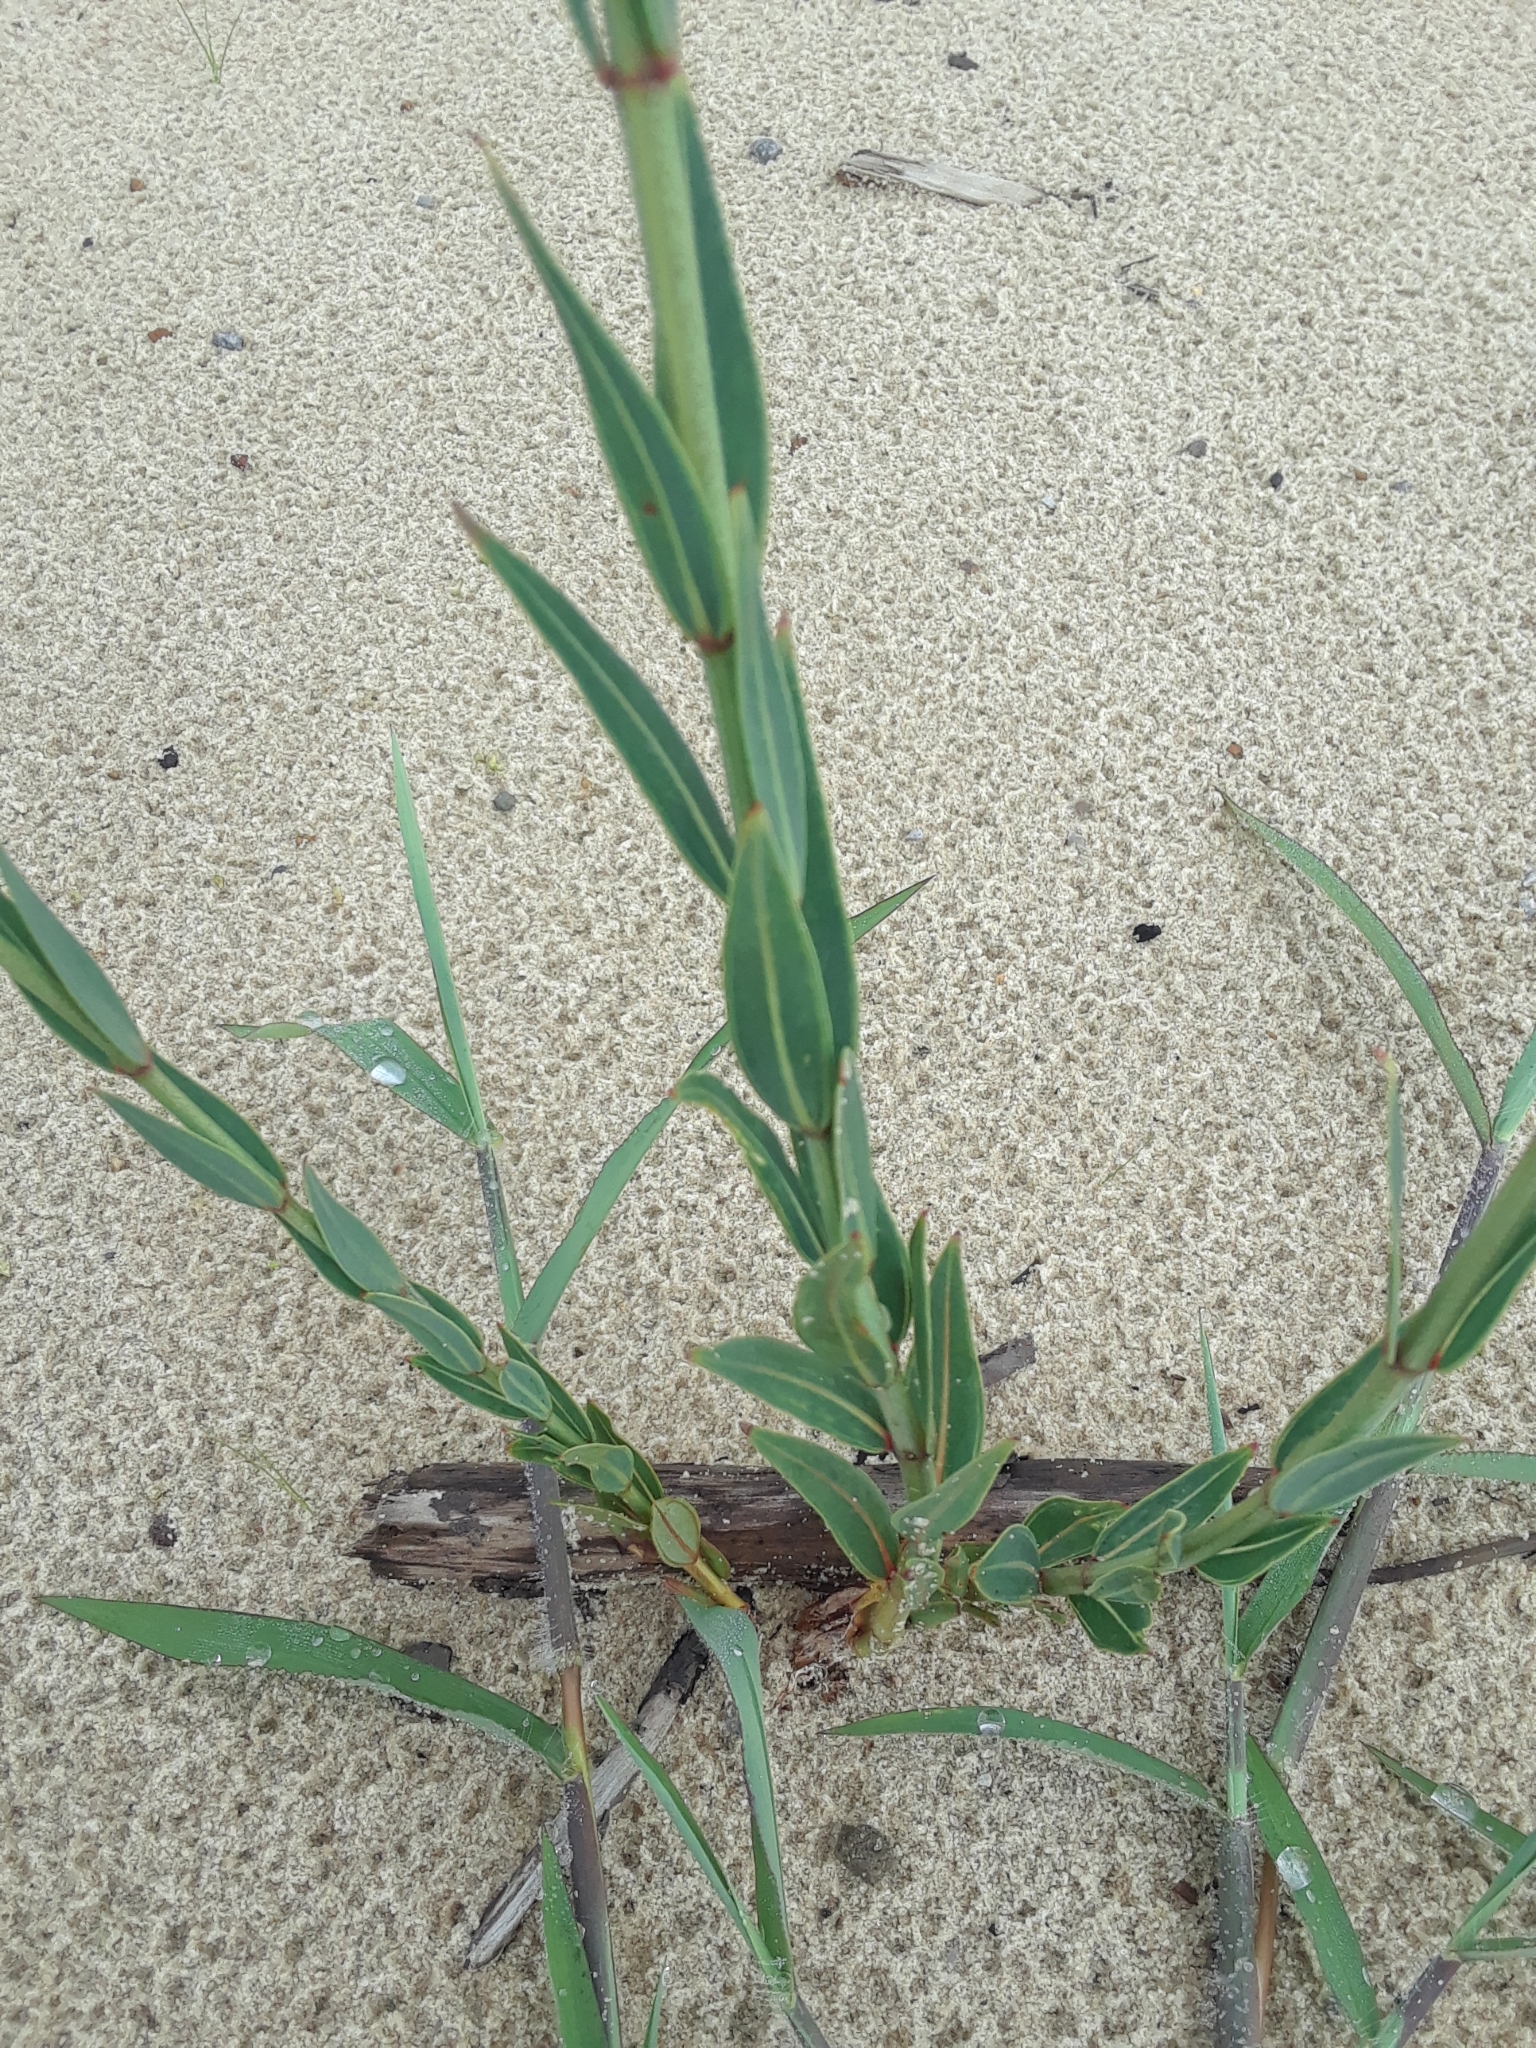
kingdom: Plantae
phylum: Tracheophyta
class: Magnoliopsida
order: Myrtales
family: Melastomataceae
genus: Rhexia
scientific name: Rhexia alifanus
